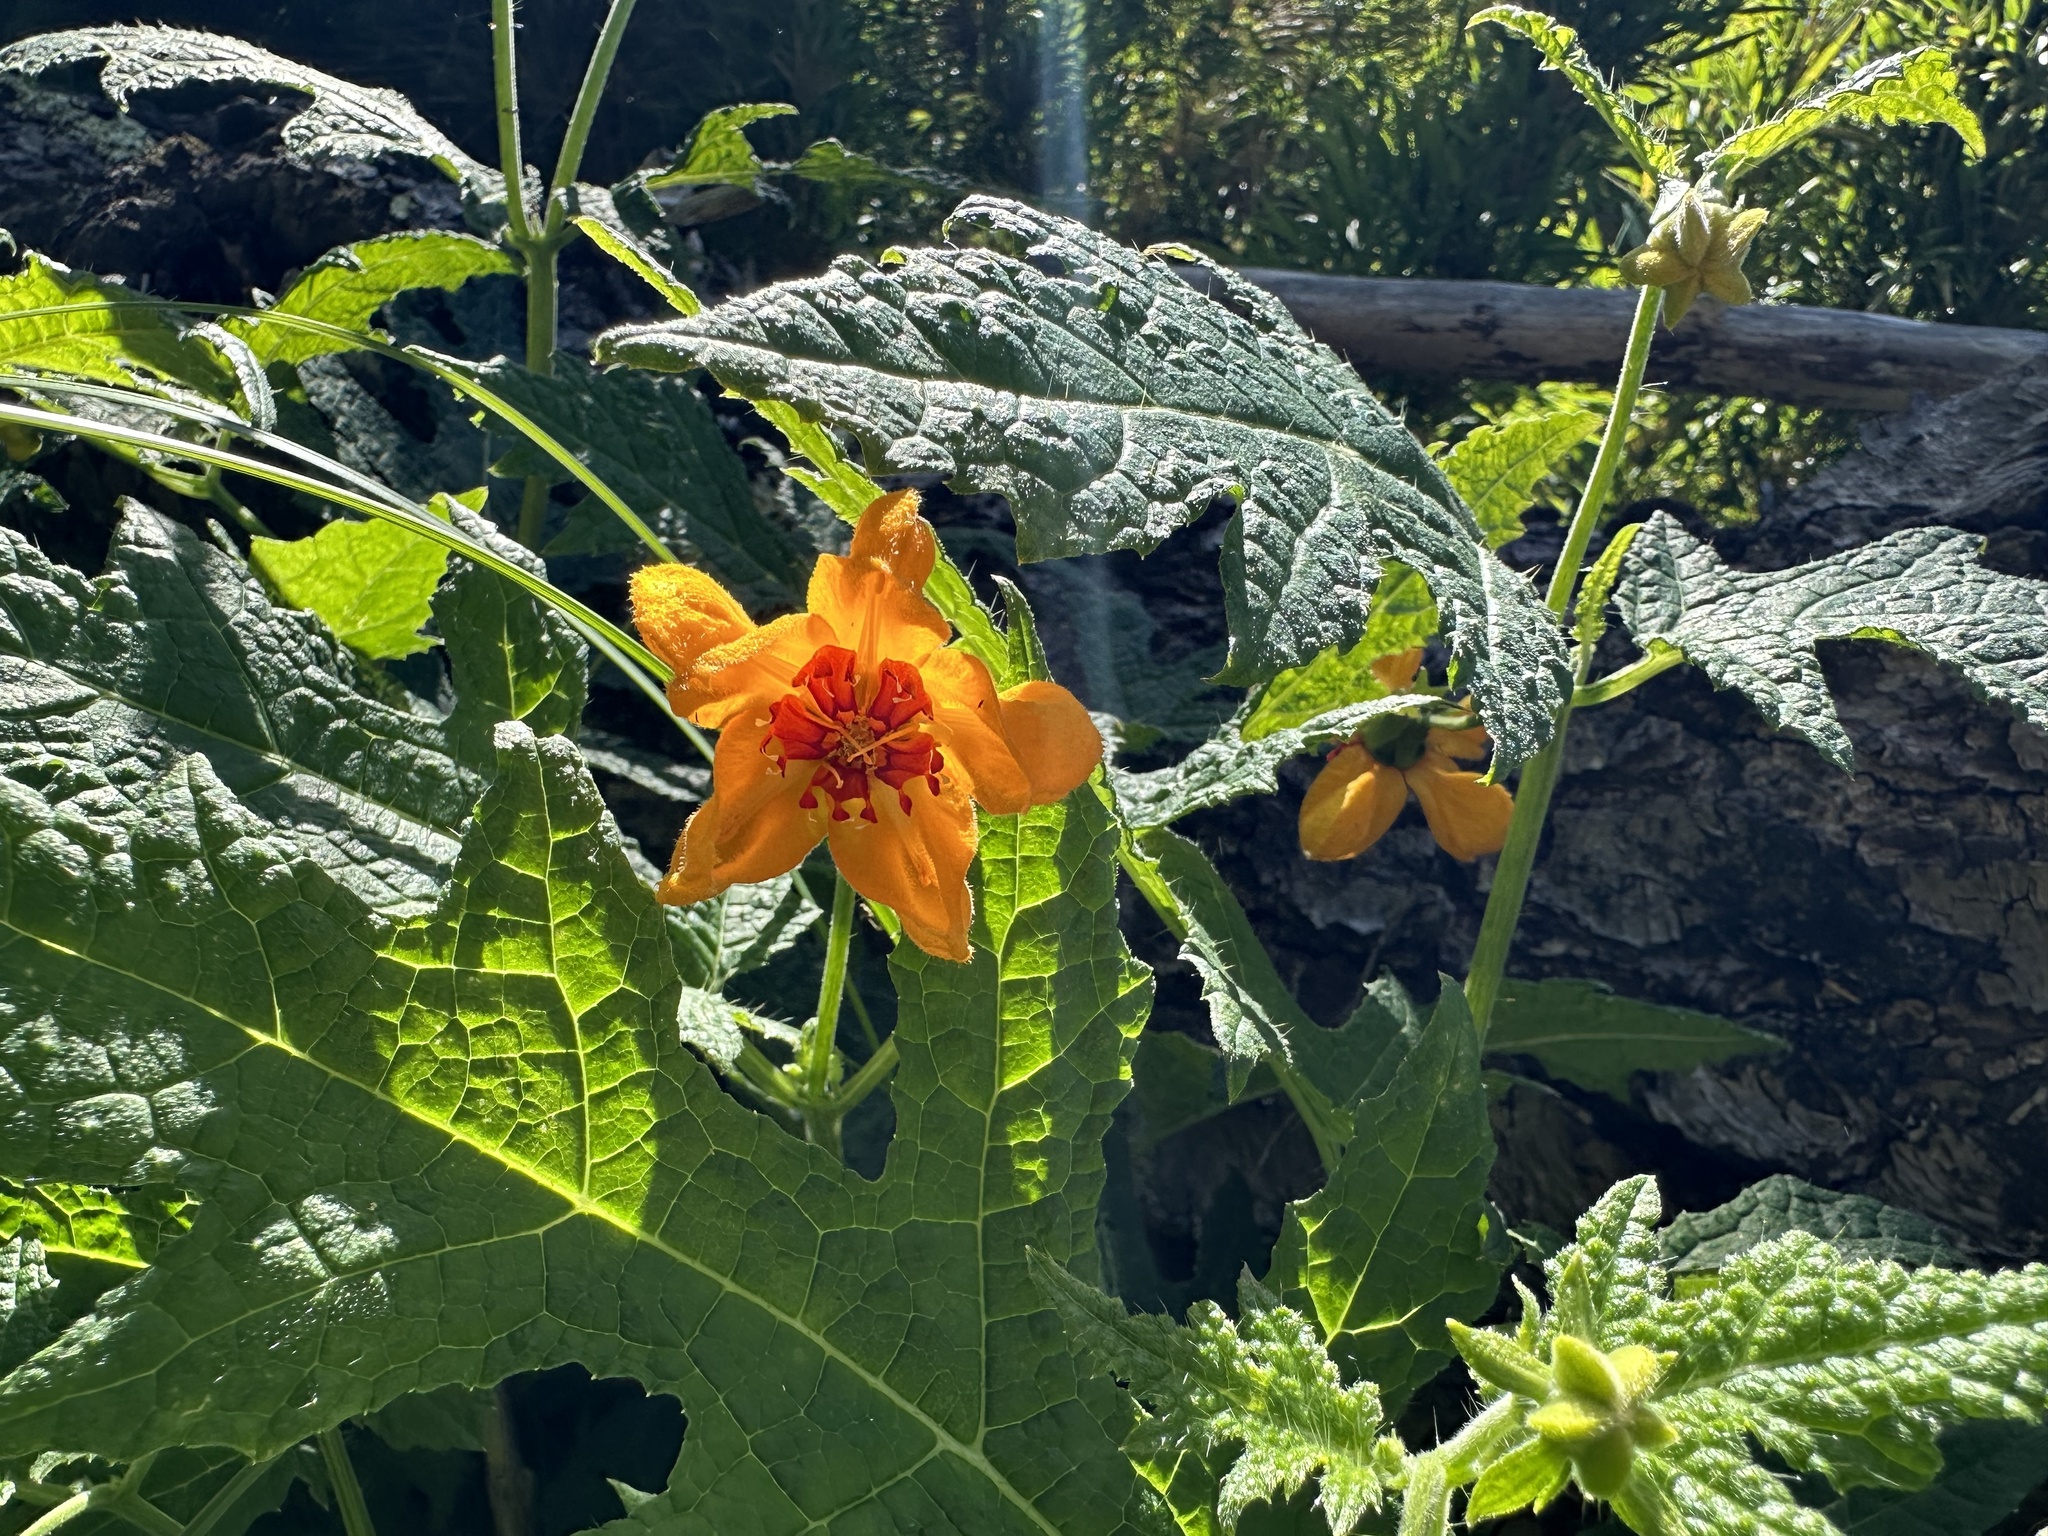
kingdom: Plantae
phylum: Tracheophyta
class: Magnoliopsida
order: Cornales
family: Loasaceae
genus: Loasa
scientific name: Loasa acanthifolia
